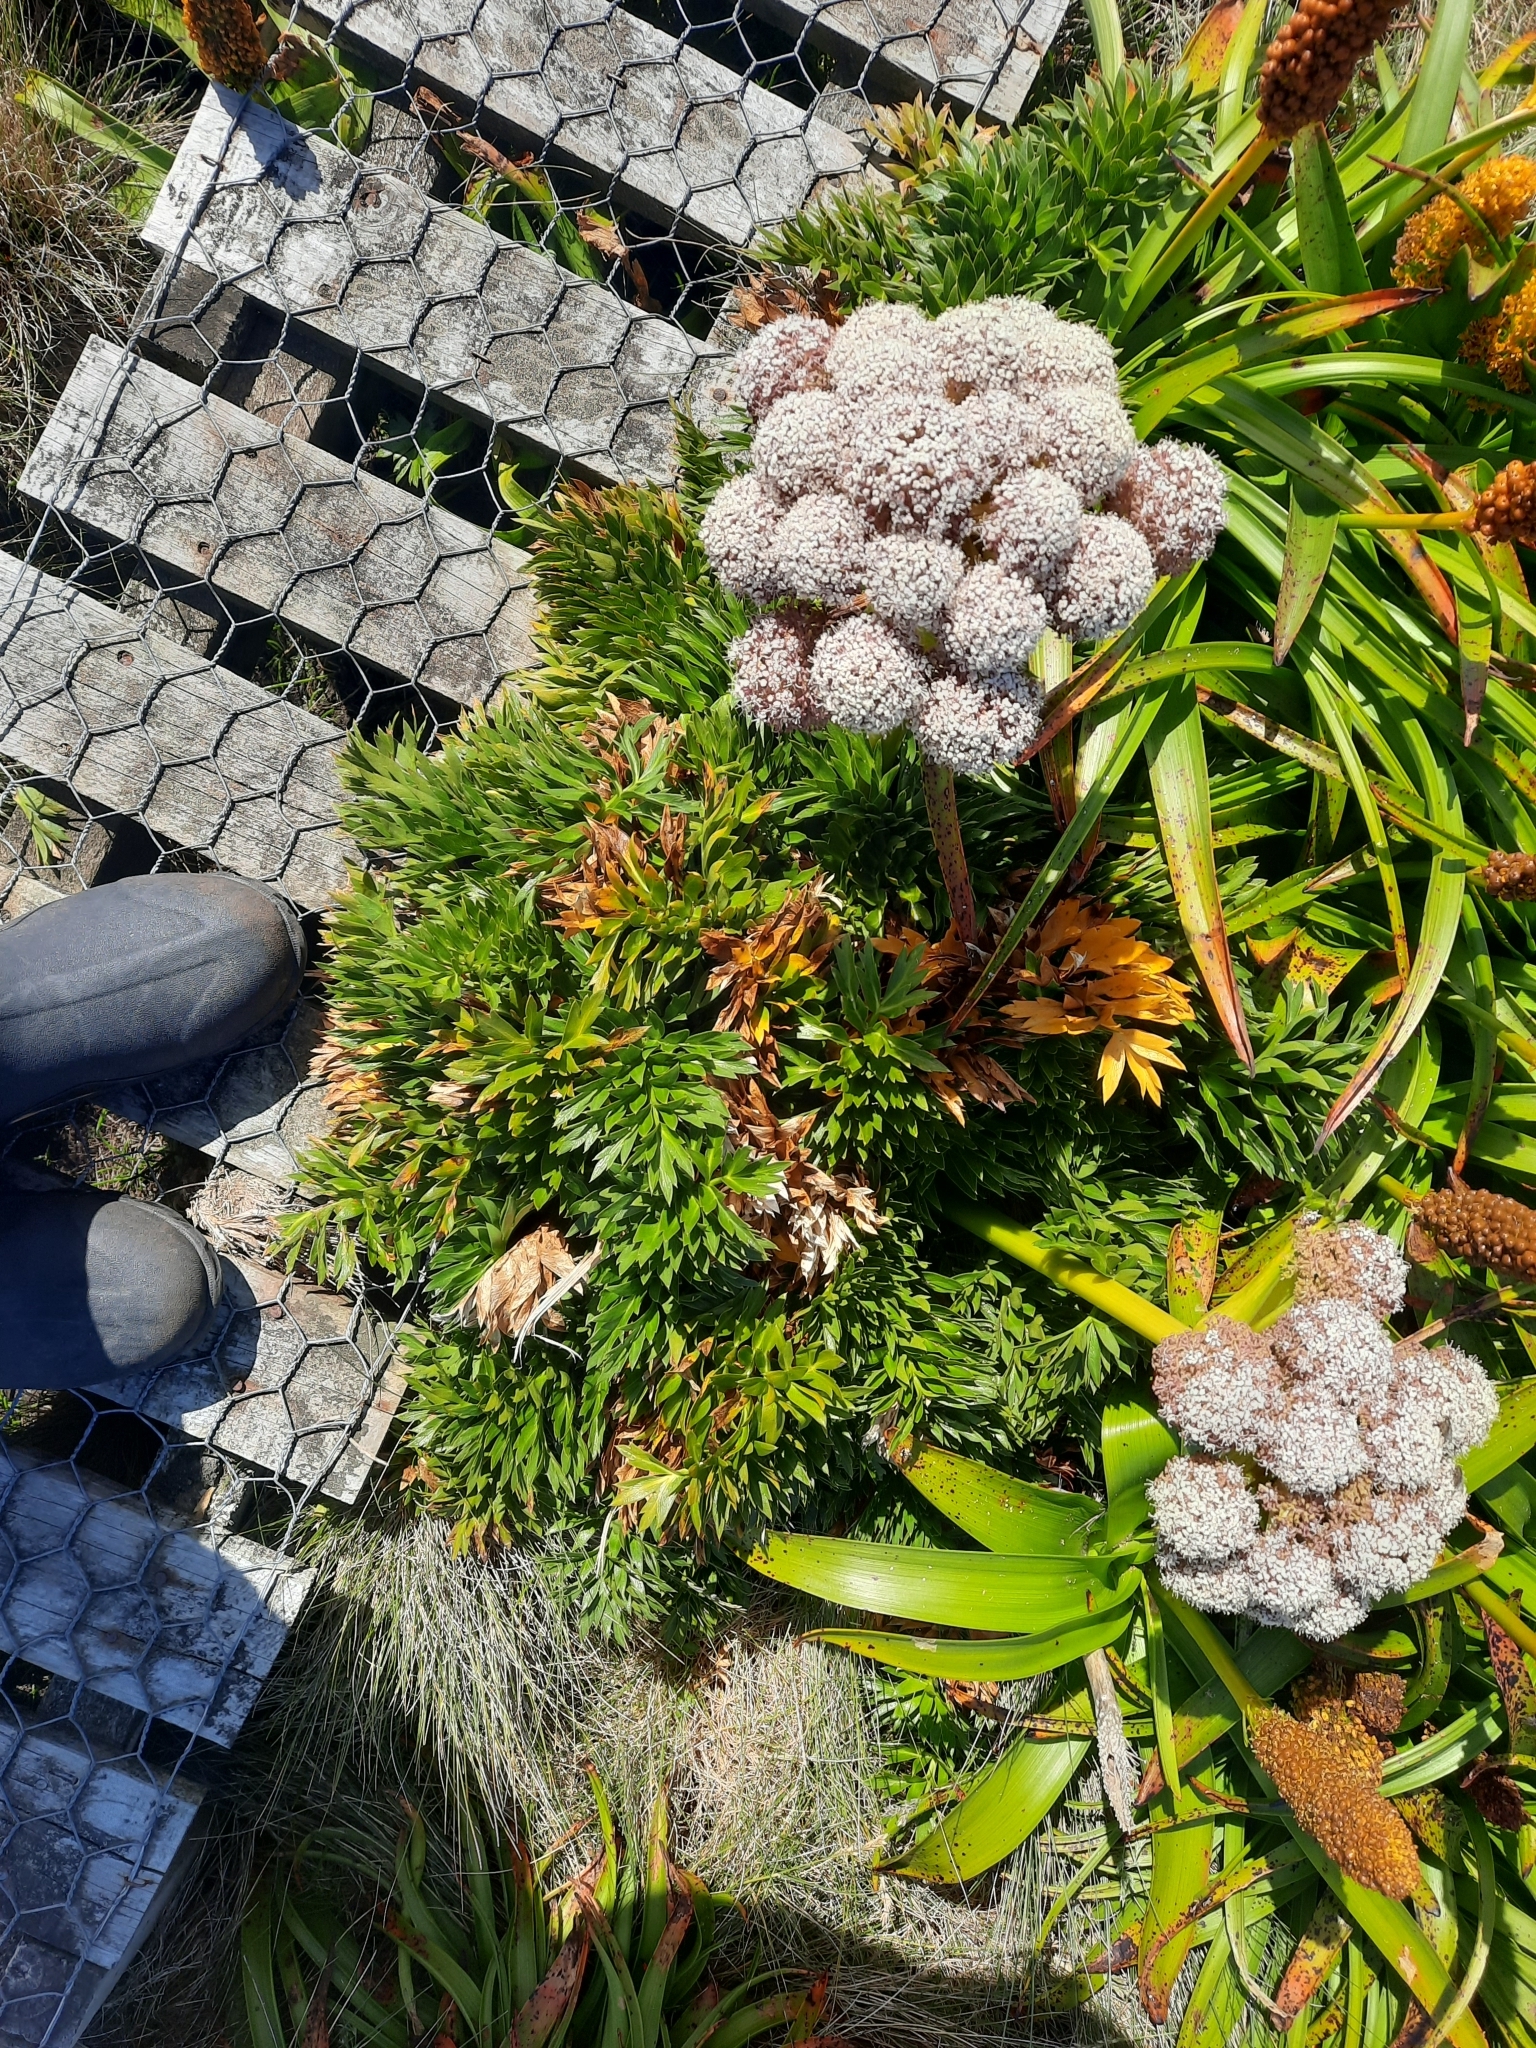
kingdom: Plantae
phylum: Tracheophyta
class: Magnoliopsida
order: Apiales
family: Apiaceae
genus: Anisotome
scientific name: Anisotome latifolia
